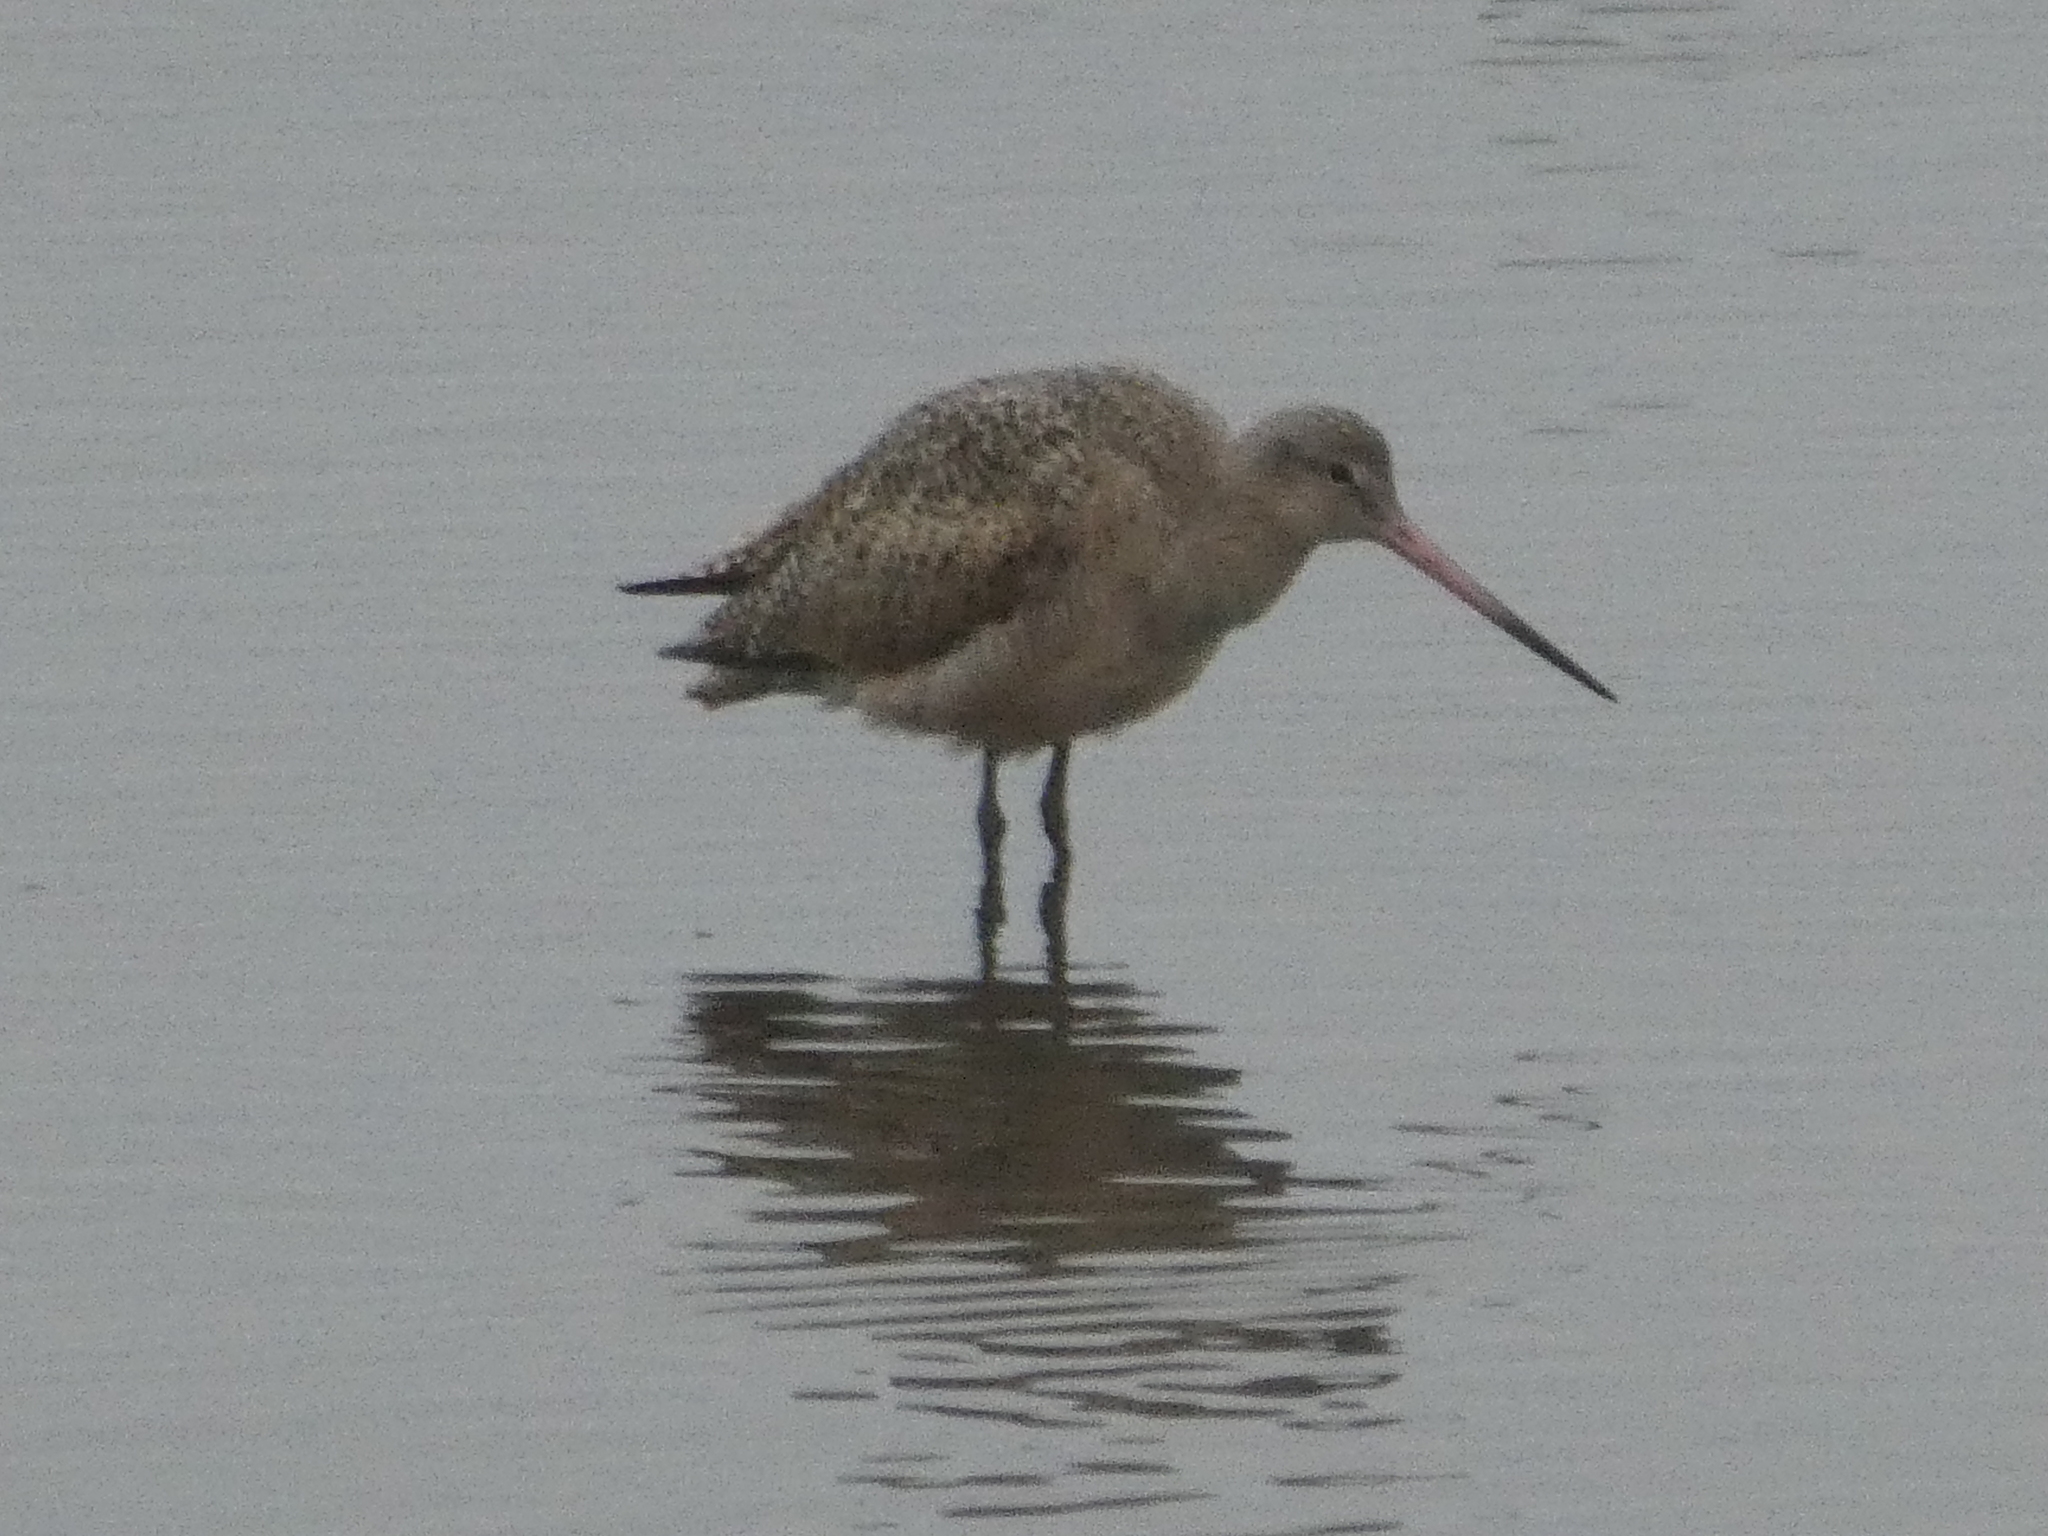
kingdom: Animalia
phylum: Chordata
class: Aves
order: Charadriiformes
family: Scolopacidae
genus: Limosa
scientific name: Limosa fedoa
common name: Marbled godwit
